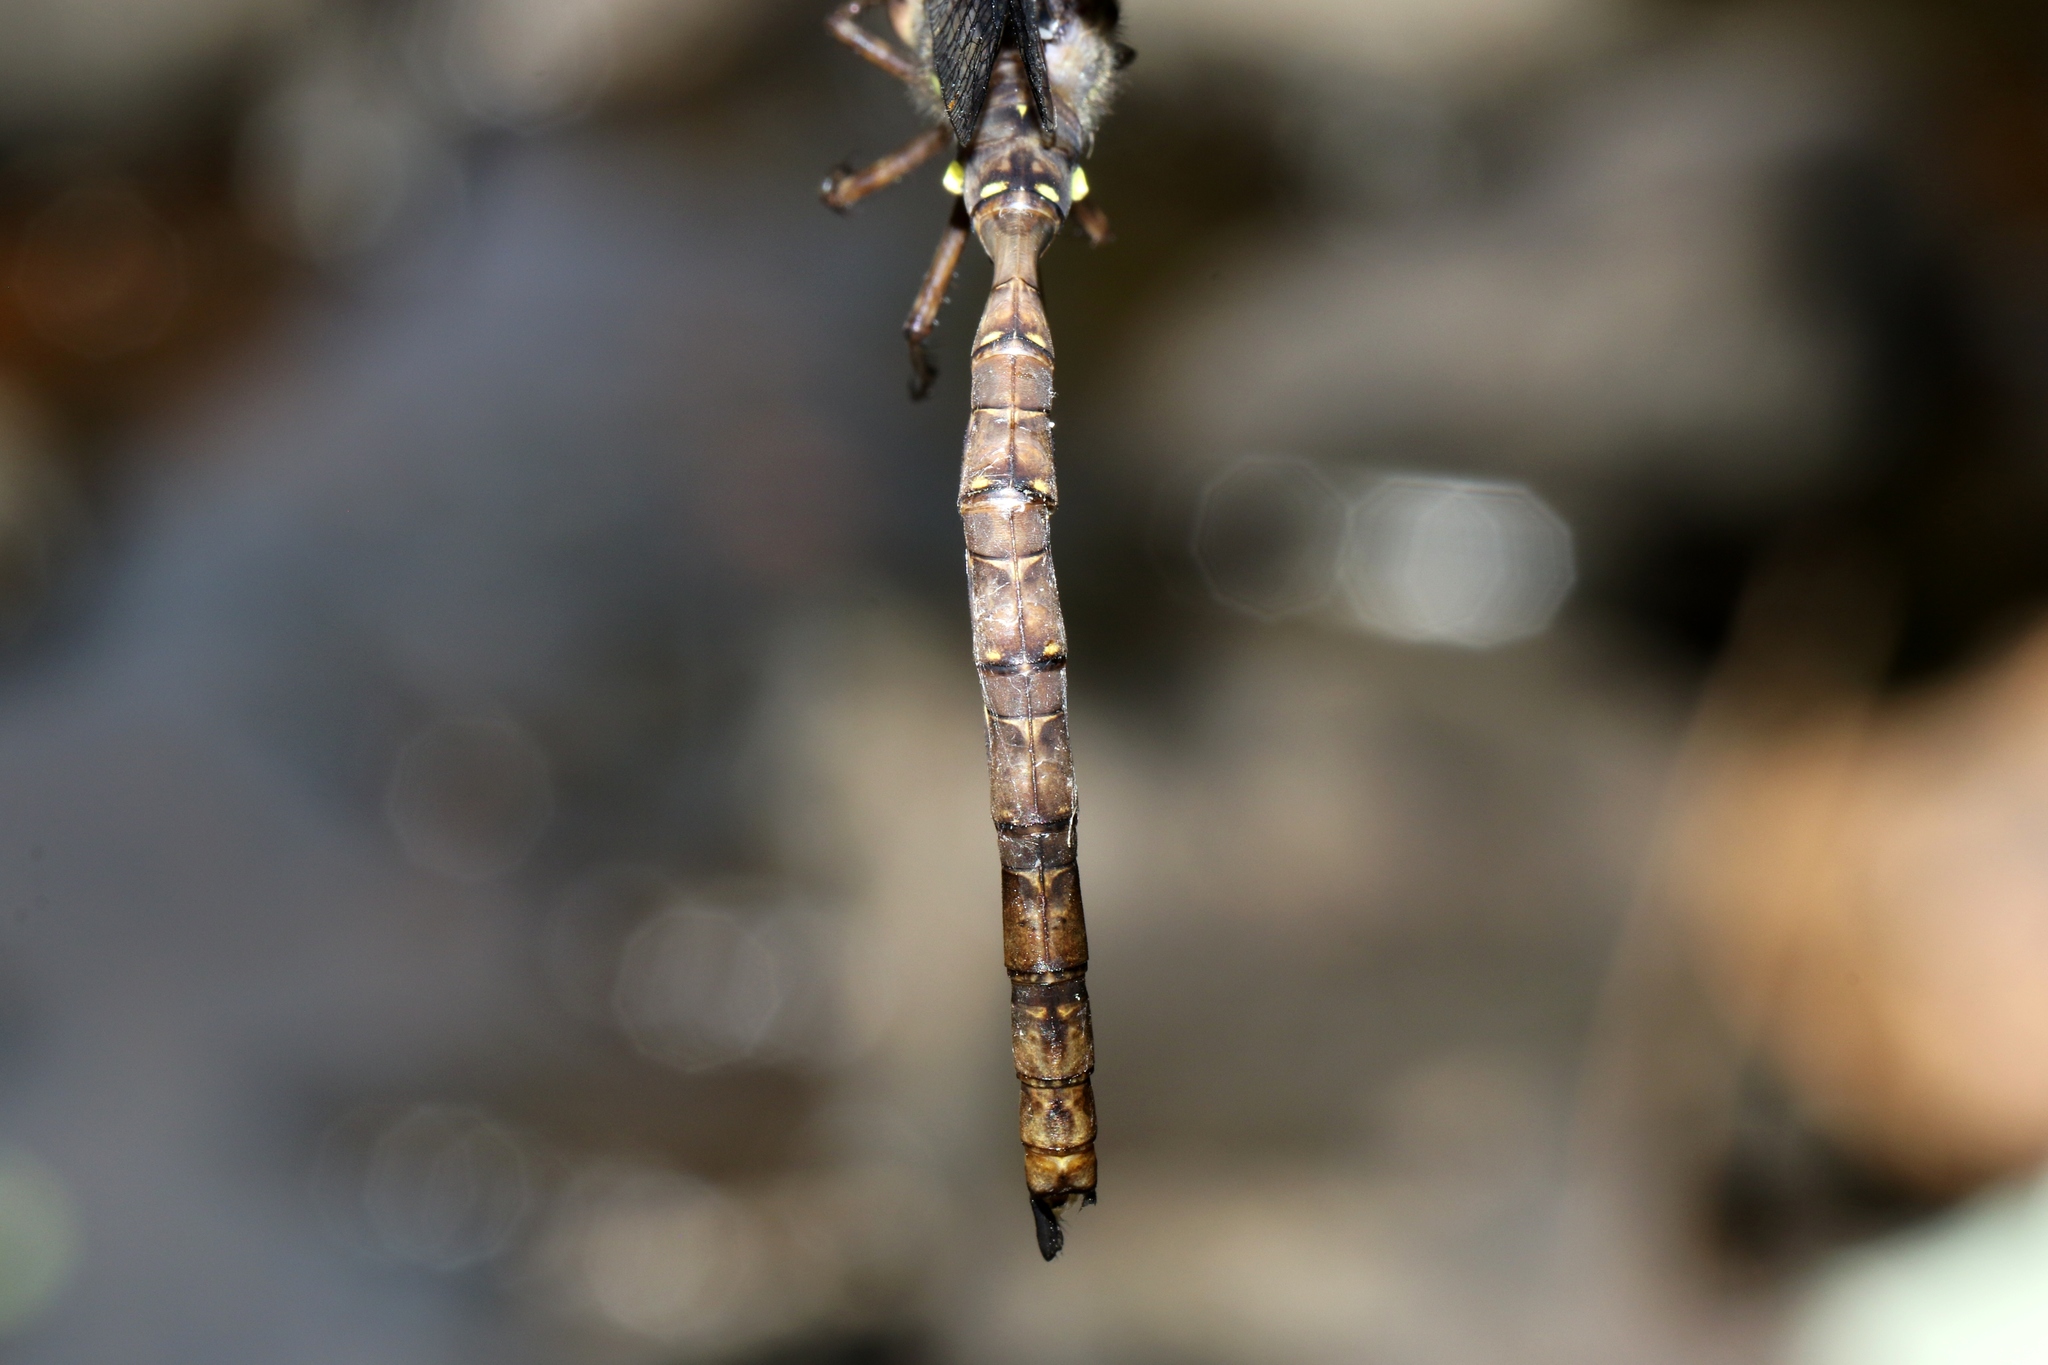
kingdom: Animalia
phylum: Arthropoda
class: Insecta
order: Odonata
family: Aeshnidae
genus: Boyeria
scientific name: Boyeria vinosa
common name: Fawn darner
